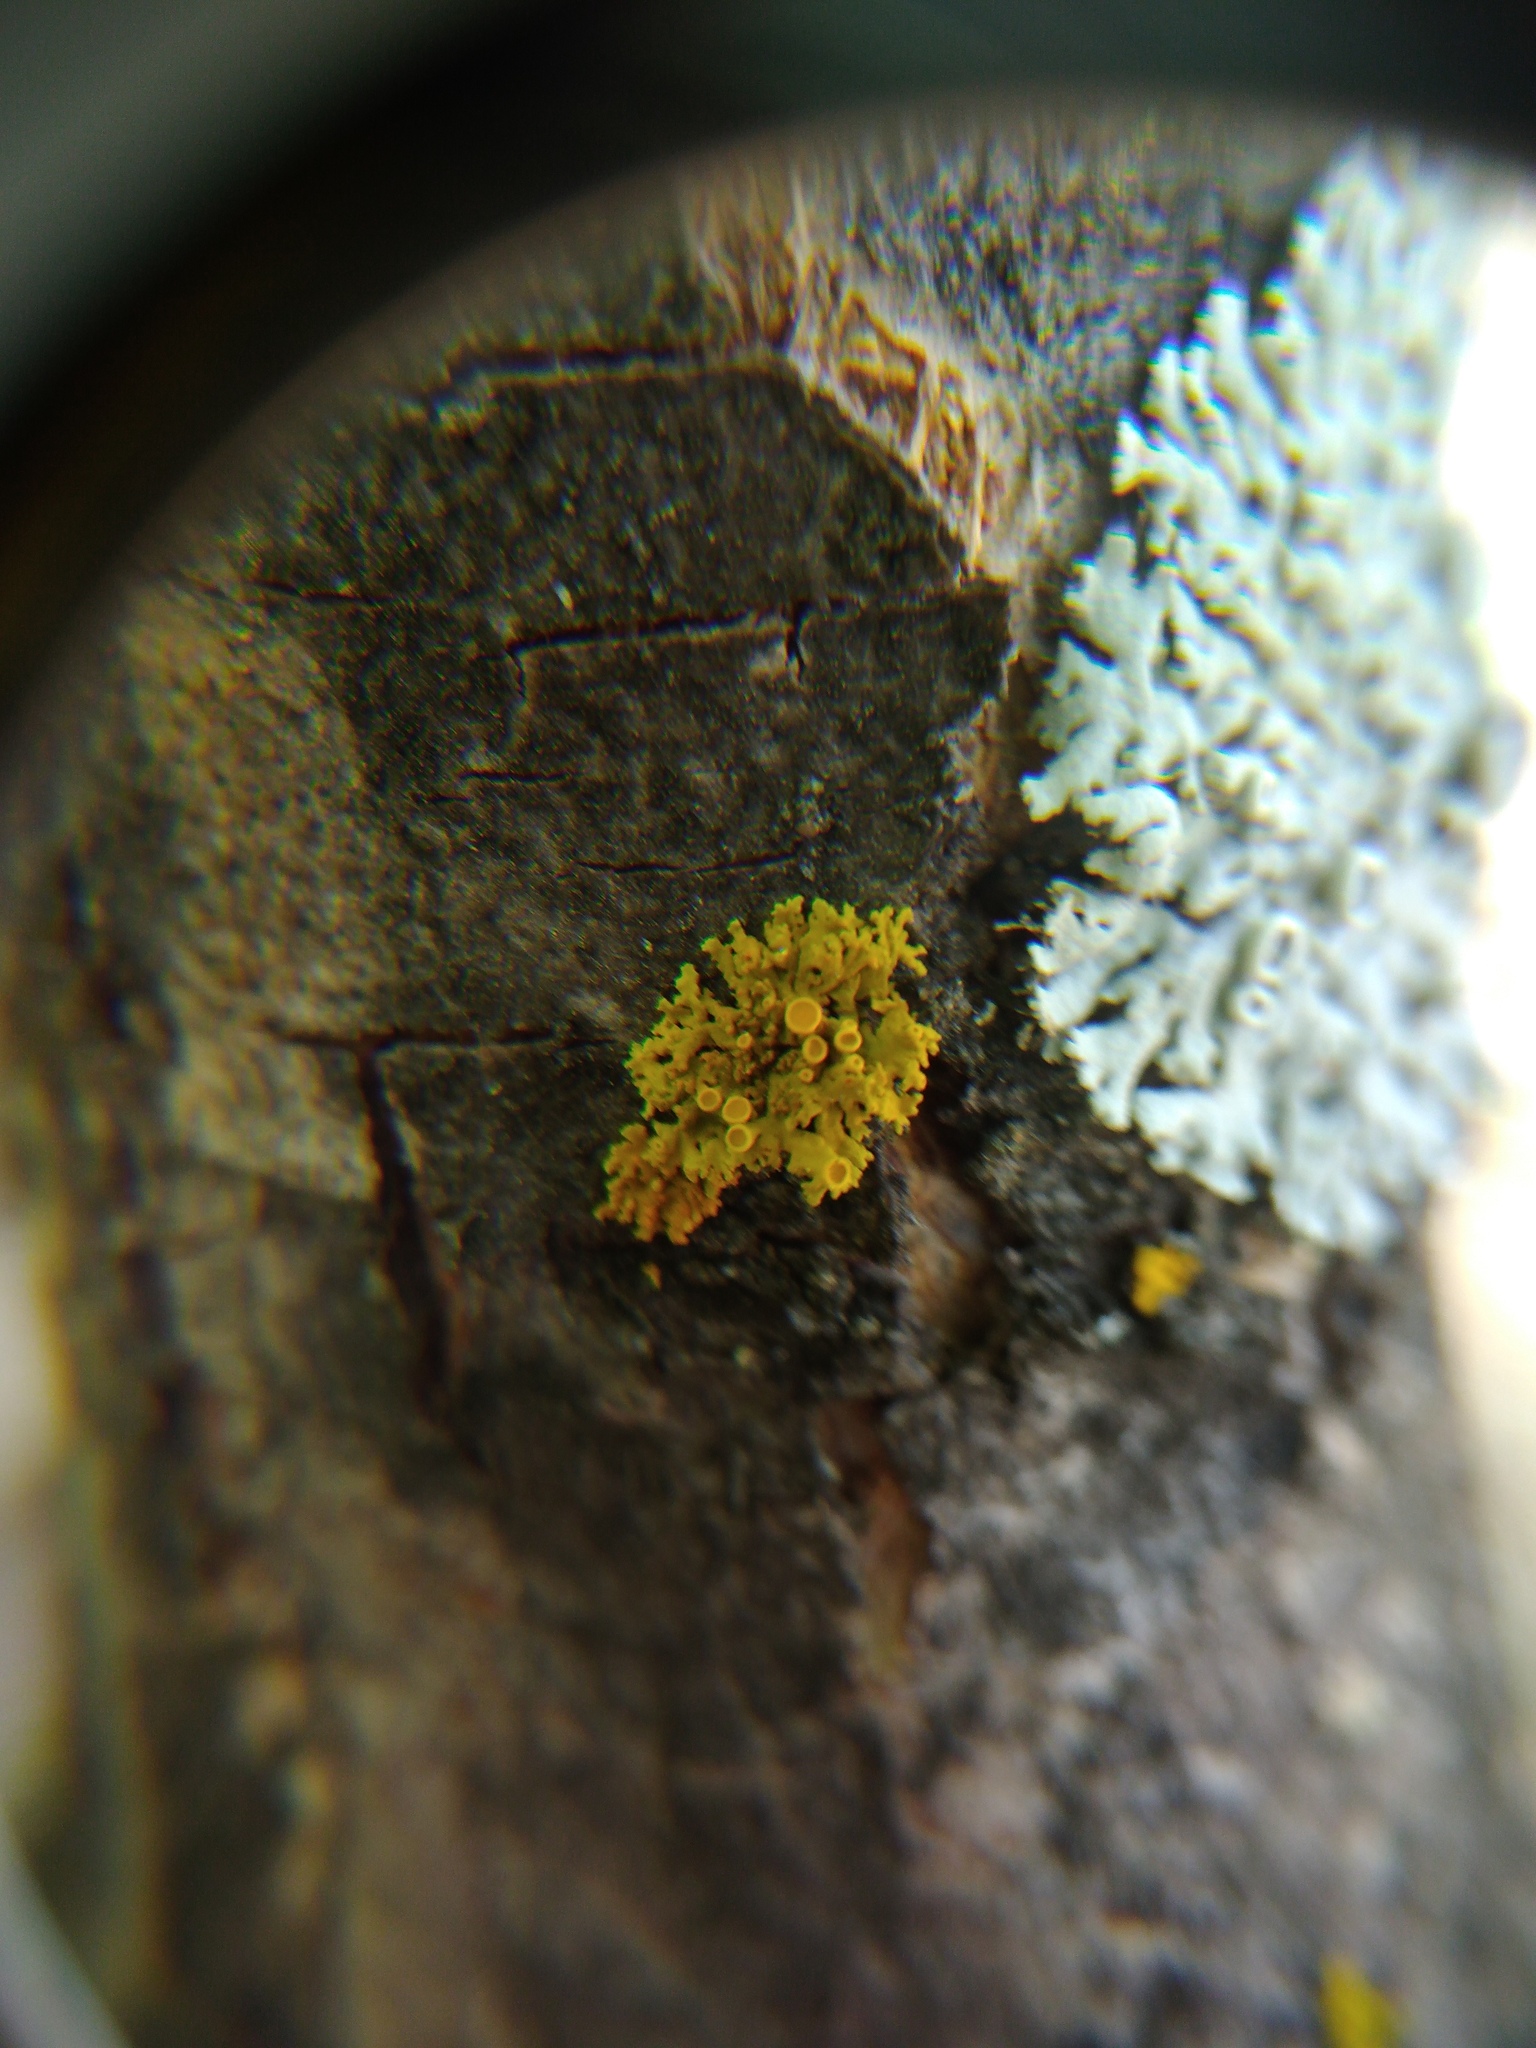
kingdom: Fungi
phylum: Ascomycota
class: Lecanoromycetes
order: Teloschistales
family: Teloschistaceae
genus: Polycauliona
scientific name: Polycauliona polycarpa
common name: Pin-cushion sunburst lichen
